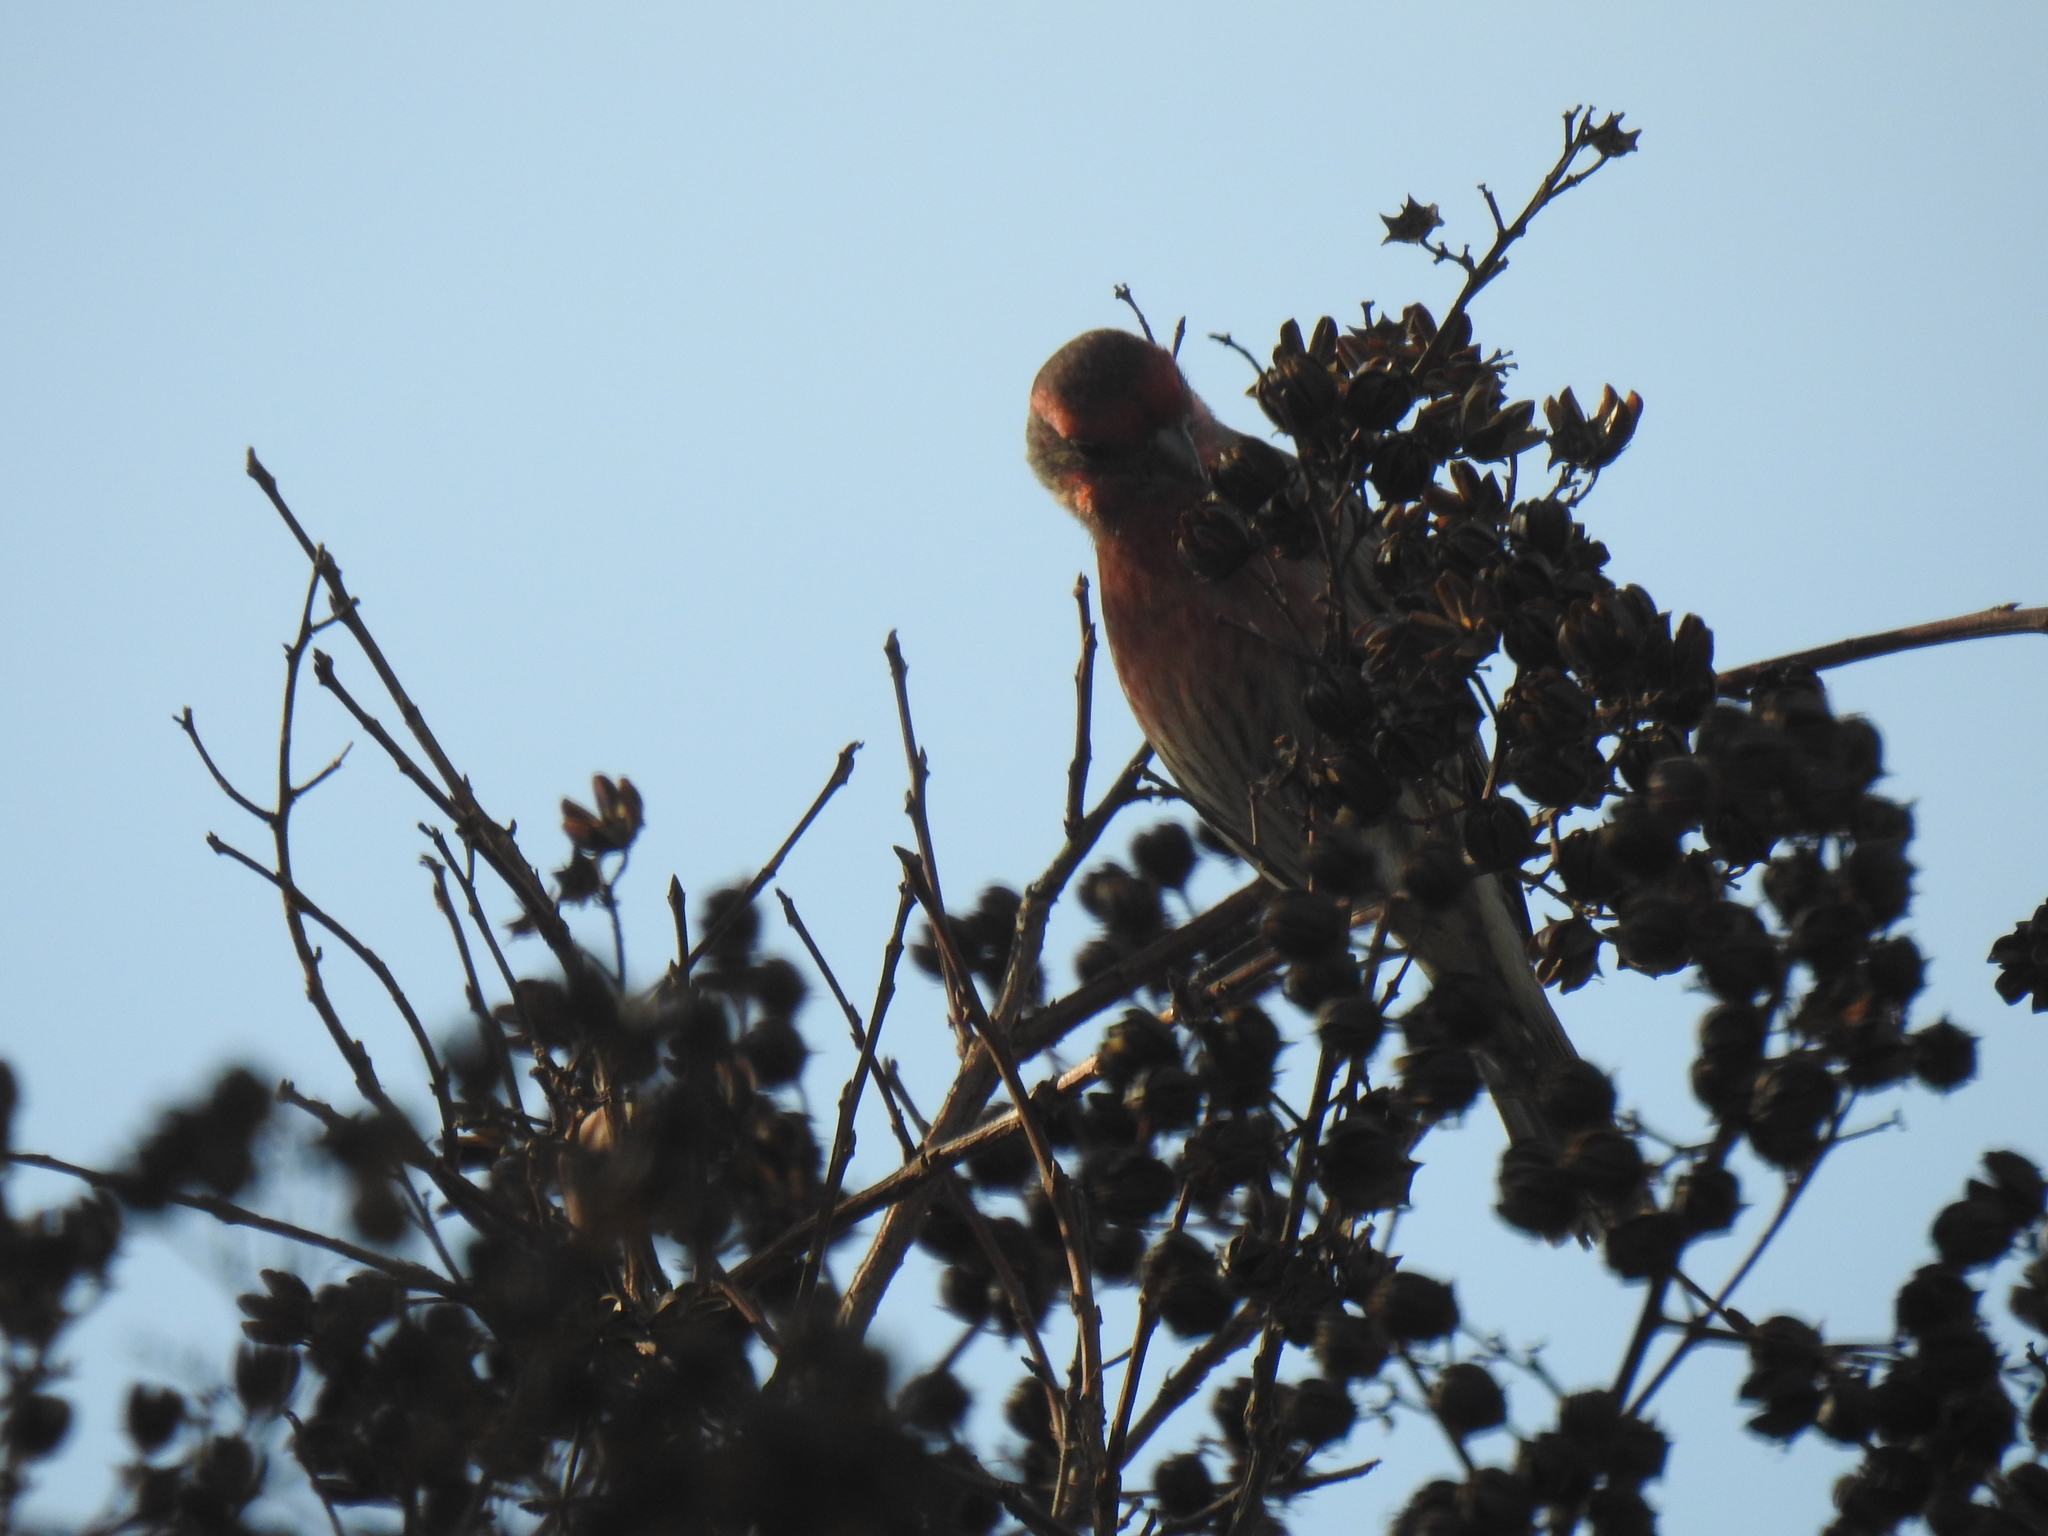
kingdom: Animalia
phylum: Chordata
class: Aves
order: Passeriformes
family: Fringillidae
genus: Haemorhous
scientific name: Haemorhous mexicanus
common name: House finch
